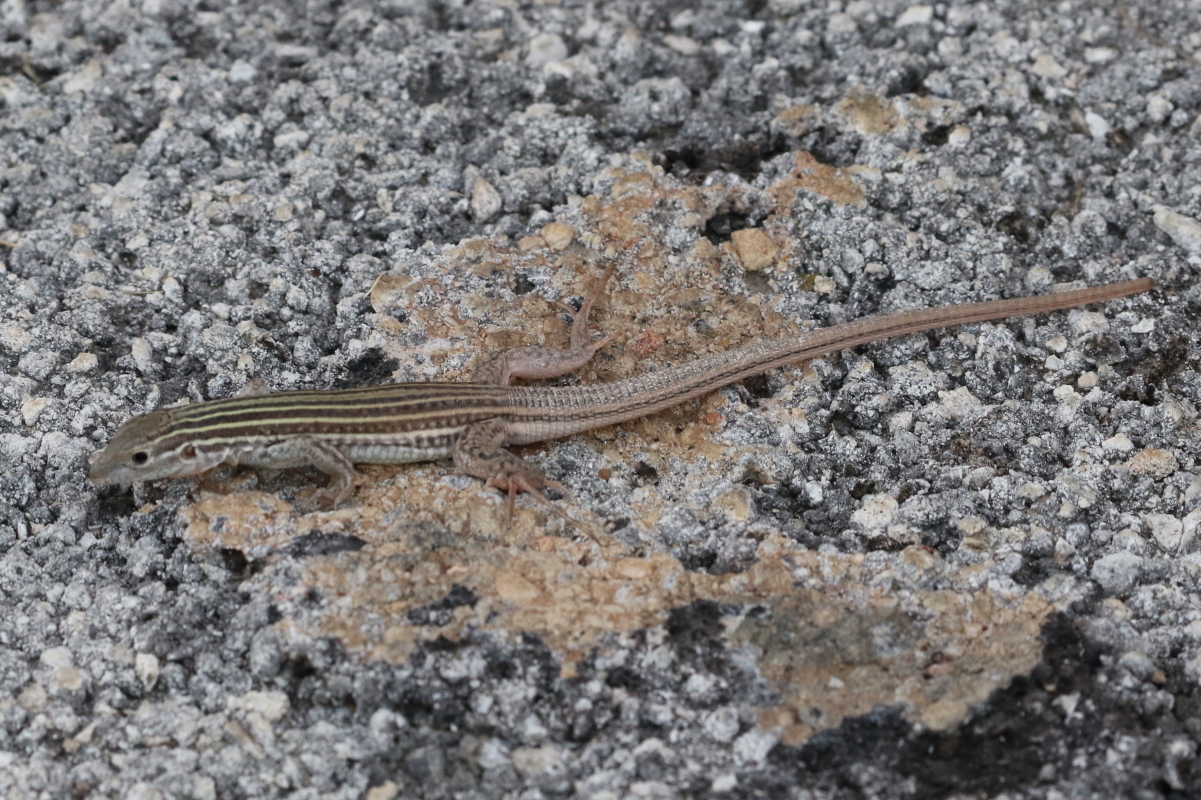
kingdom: Animalia
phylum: Chordata
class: Squamata
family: Teiidae
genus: Aspidoscelis
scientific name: Aspidoscelis gularis
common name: Eastern spotted whiptail
